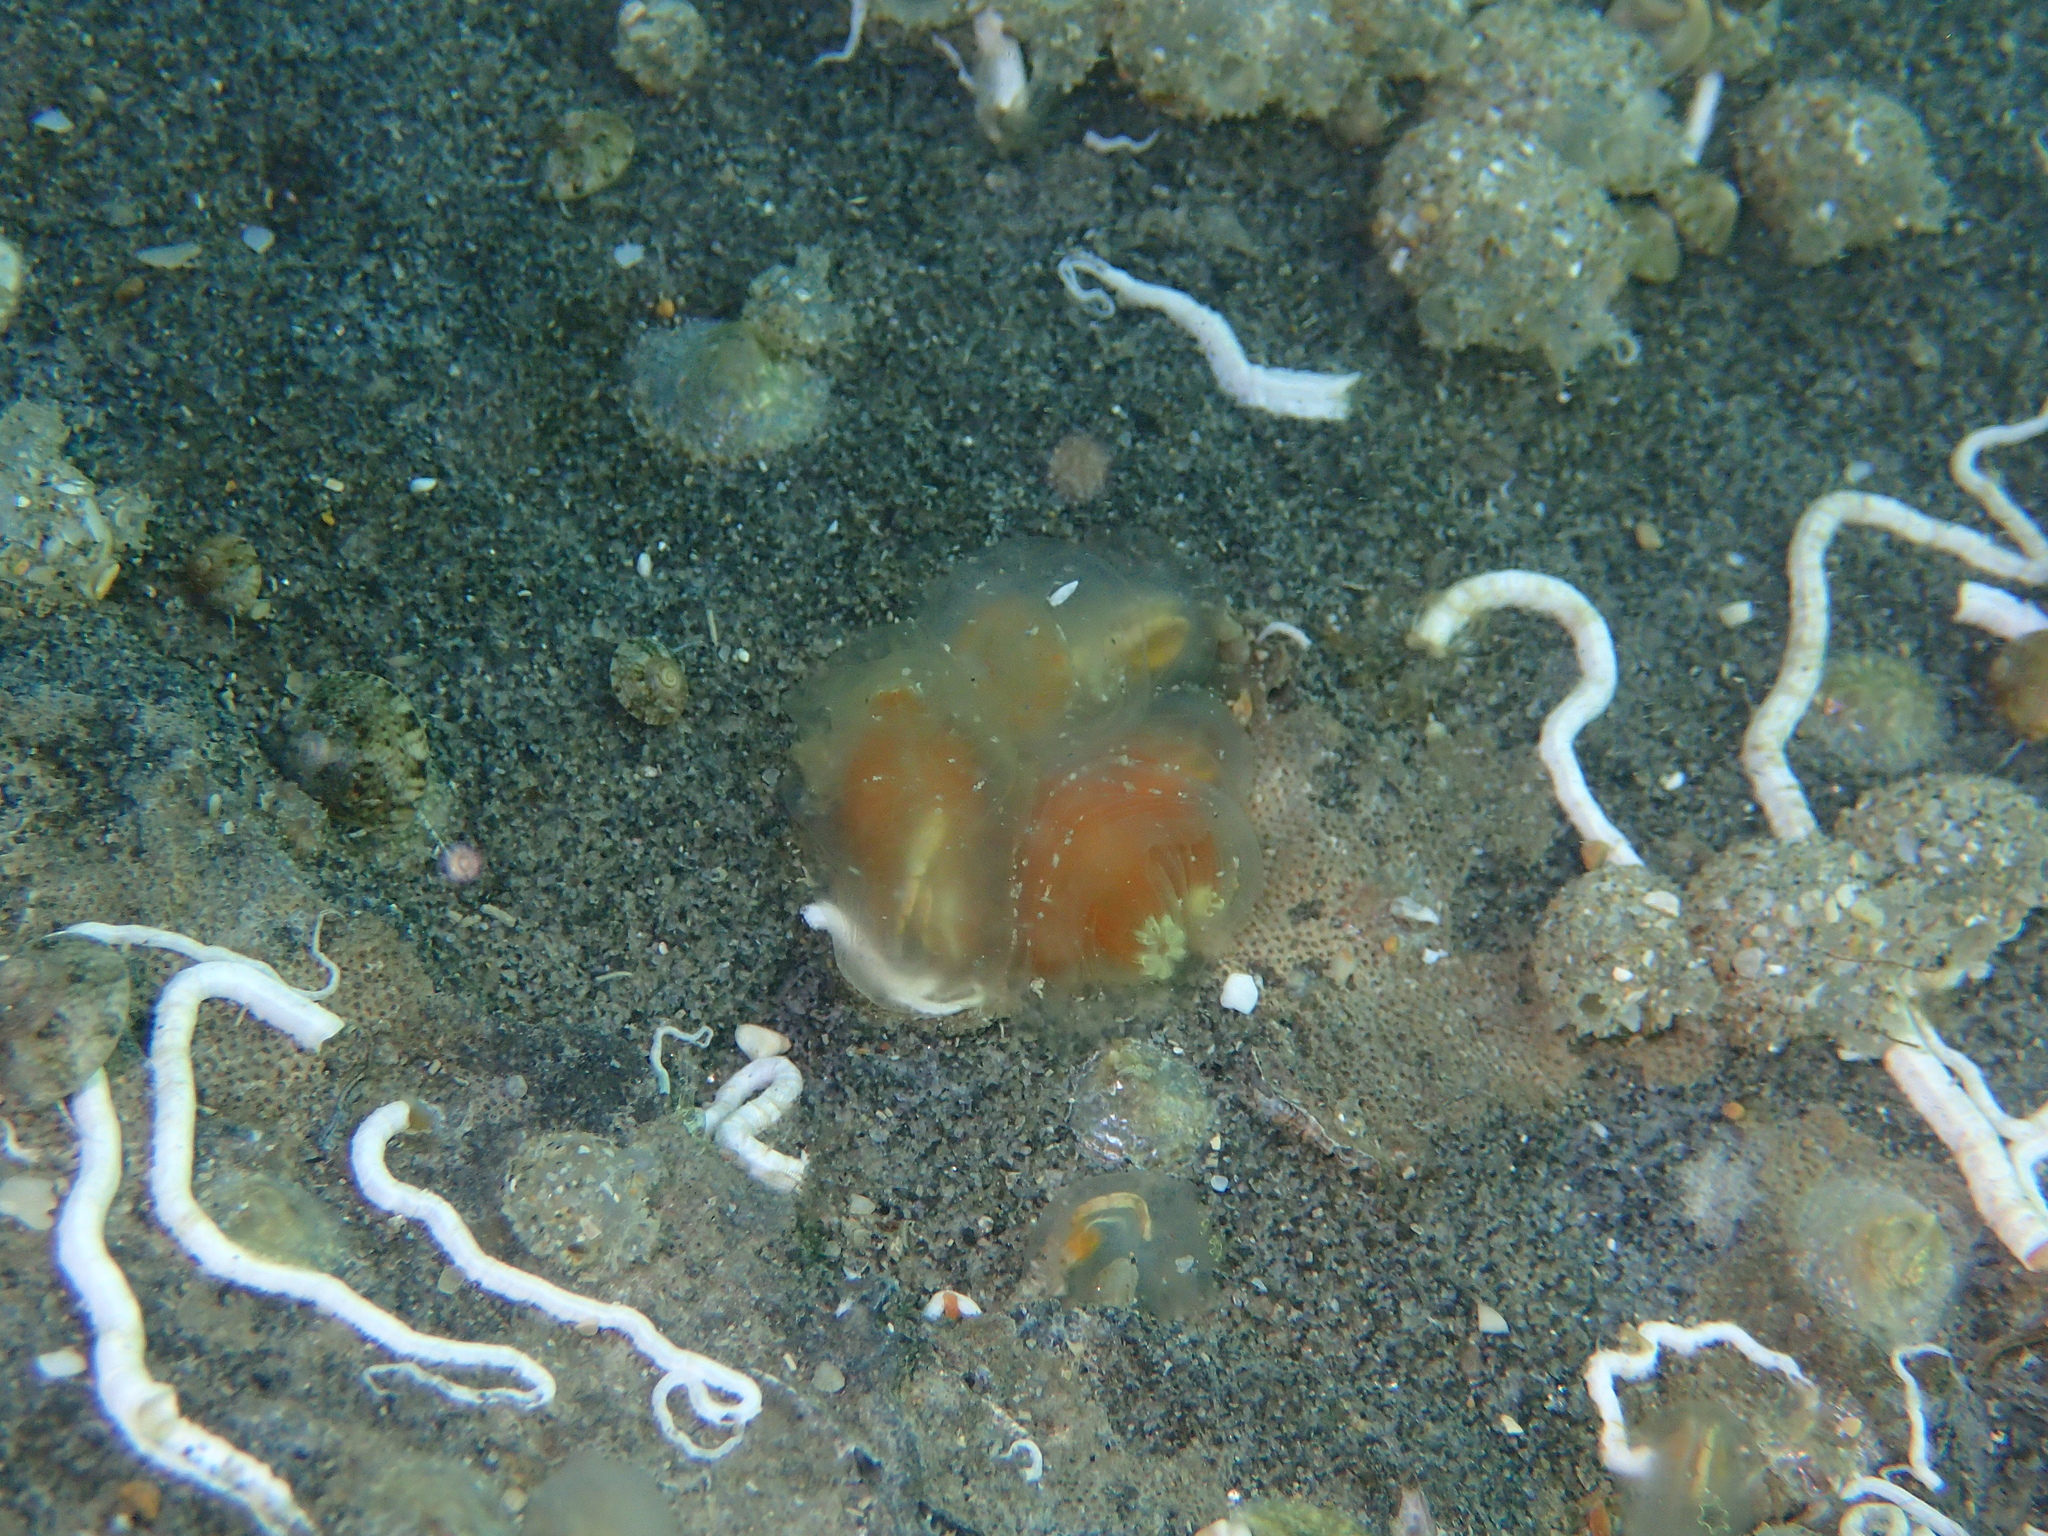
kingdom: Animalia
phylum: Chordata
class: Ascidiacea
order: Phlebobranchia
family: Cionidae
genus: Ciona
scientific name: Ciona roulii
